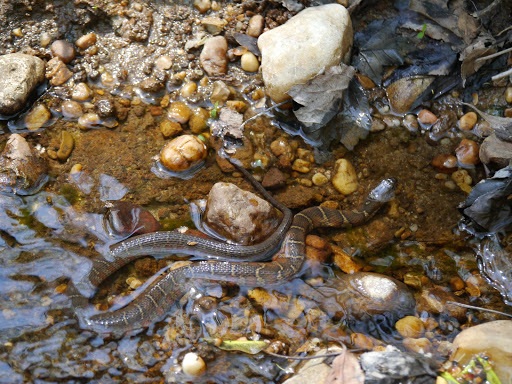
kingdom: Animalia
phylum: Chordata
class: Squamata
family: Colubridae
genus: Nerodia
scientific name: Nerodia sipedon
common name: Northern water snake
